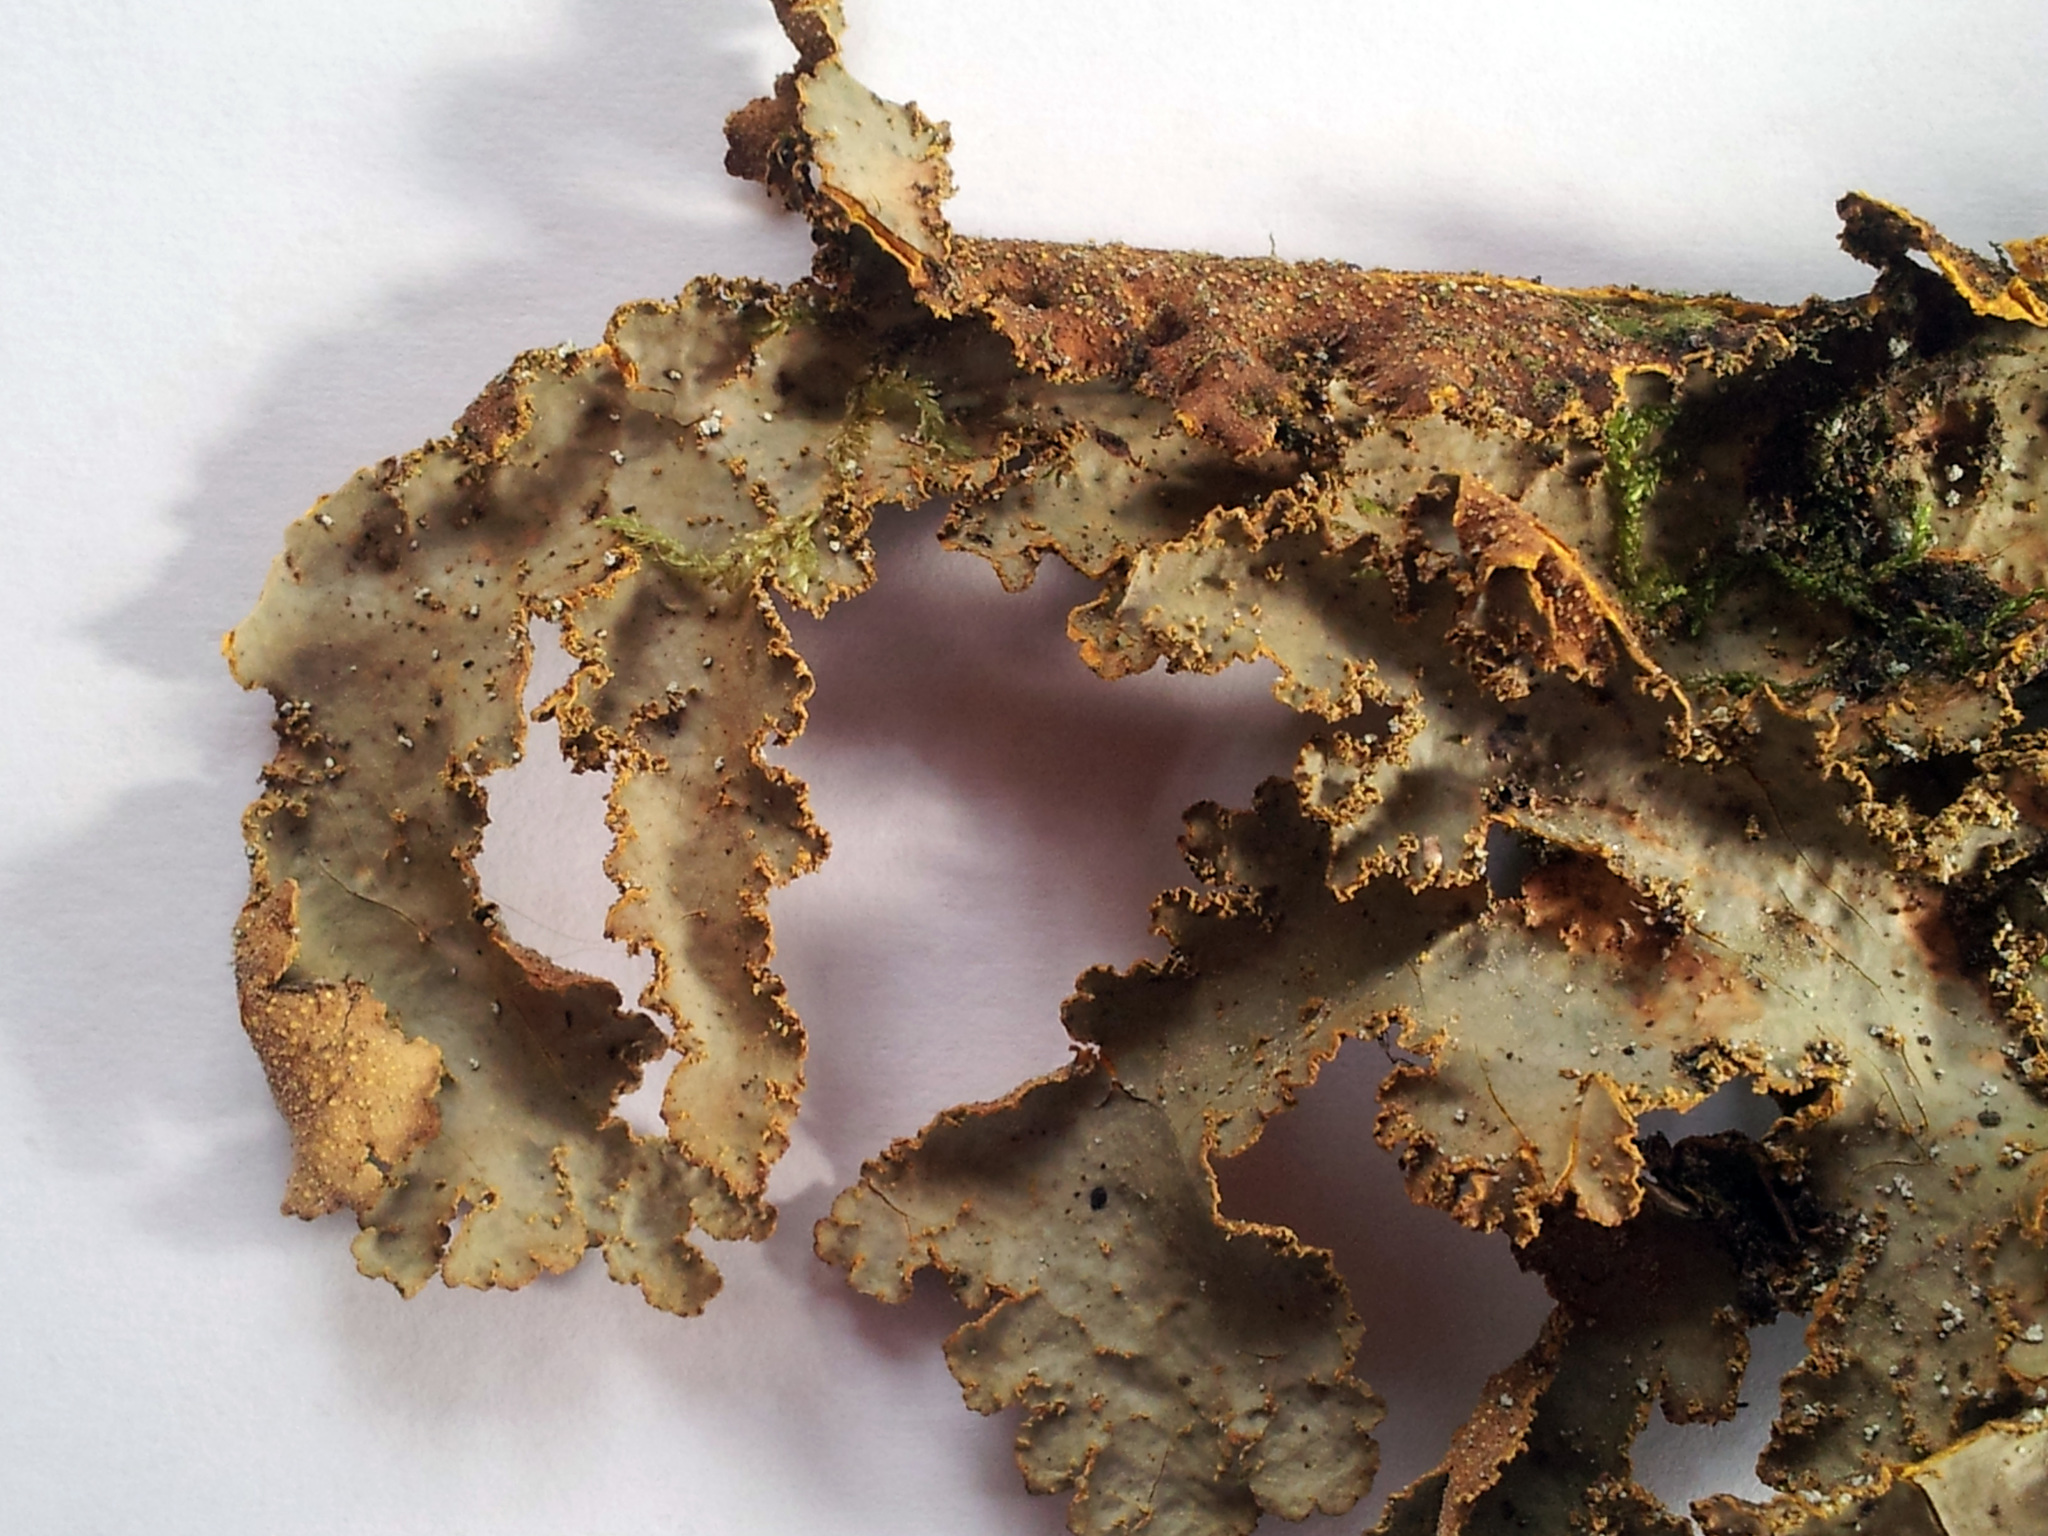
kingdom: Fungi
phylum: Ascomycota
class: Lecanoromycetes
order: Peltigerales
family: Lobariaceae
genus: Yarrumia
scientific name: Yarrumia colensoi
